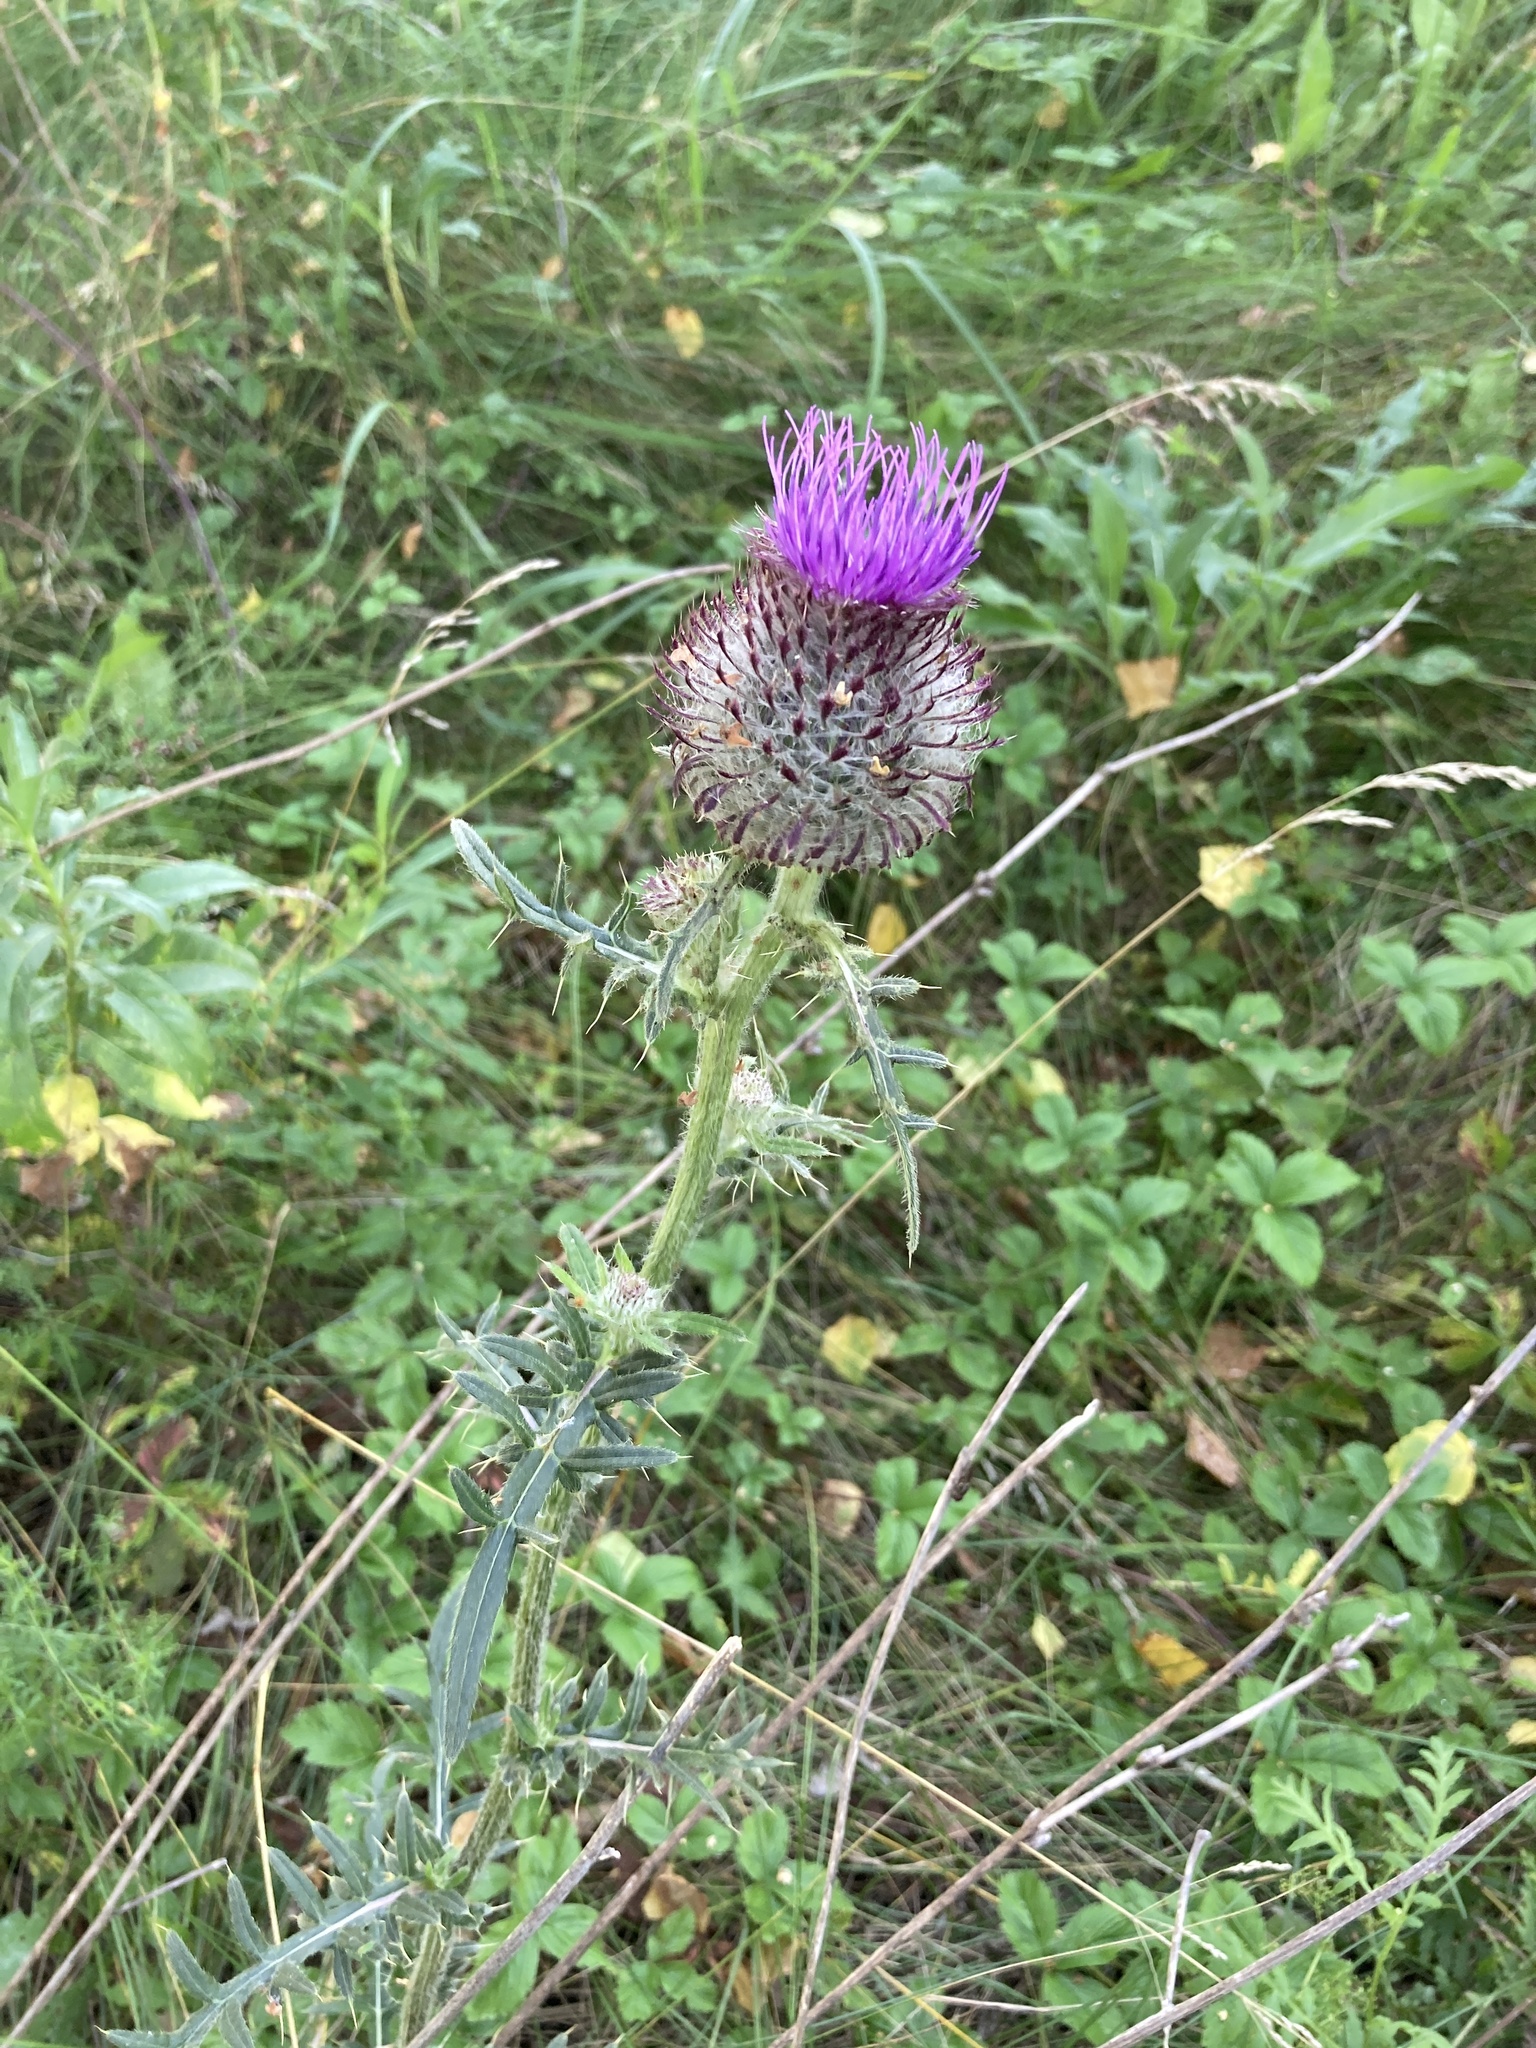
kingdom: Plantae
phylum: Tracheophyta
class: Magnoliopsida
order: Asterales
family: Asteraceae
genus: Lophiolepis
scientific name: Lophiolepis decussata
